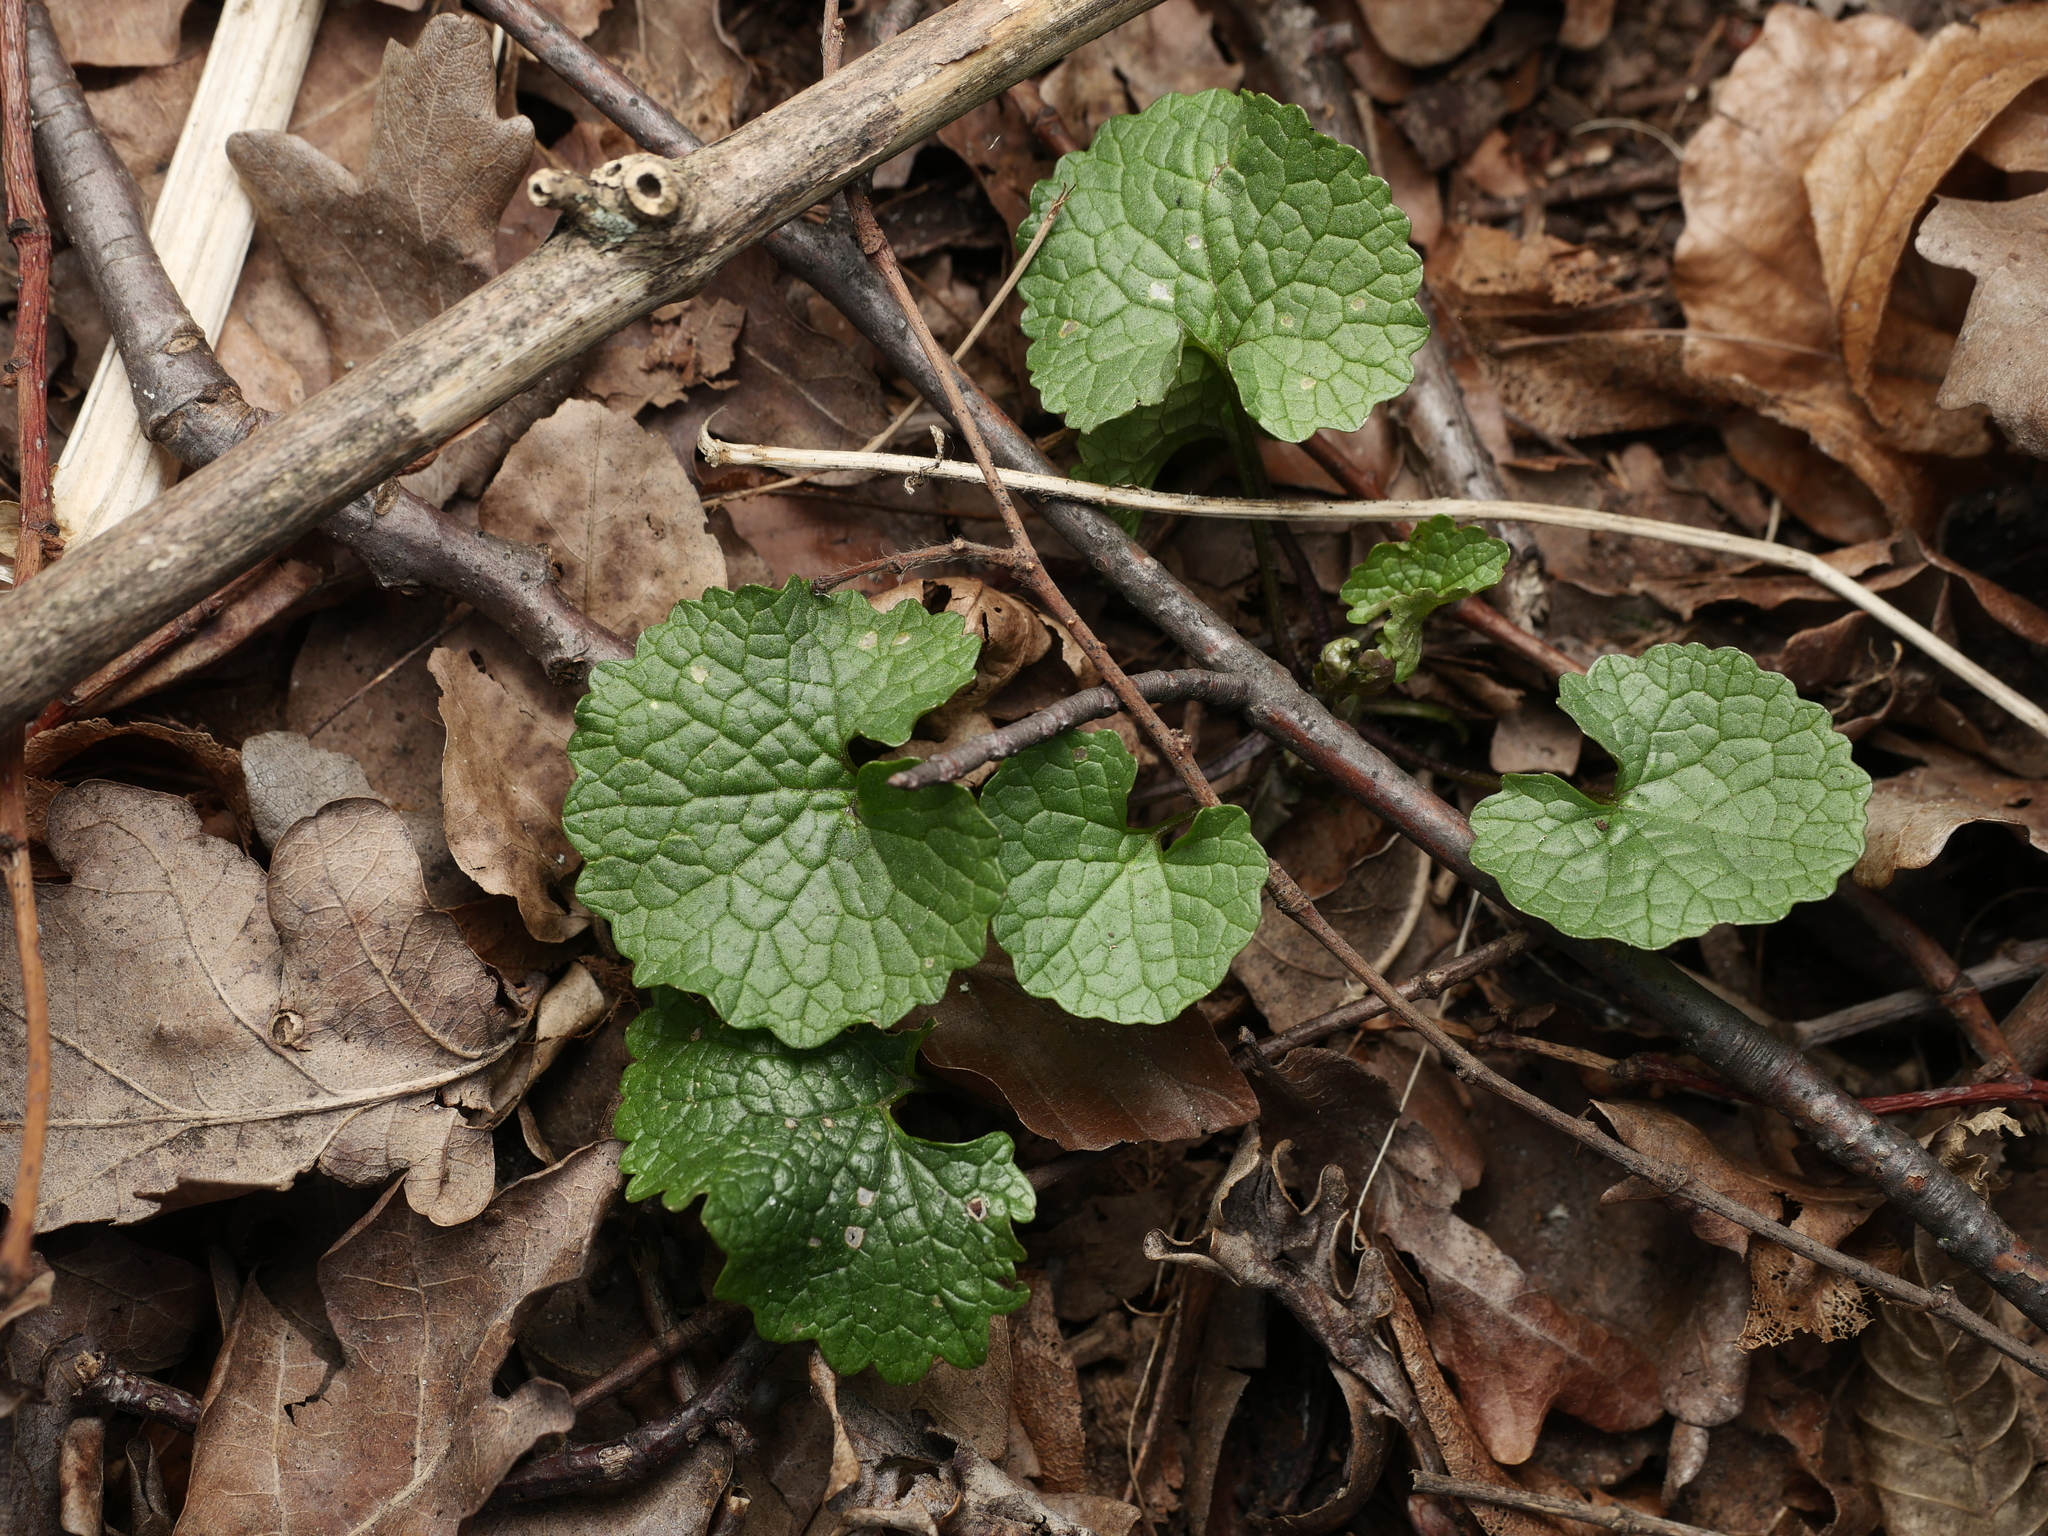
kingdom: Plantae
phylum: Tracheophyta
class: Magnoliopsida
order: Brassicales
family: Brassicaceae
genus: Alliaria
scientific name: Alliaria petiolata
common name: Garlic mustard
